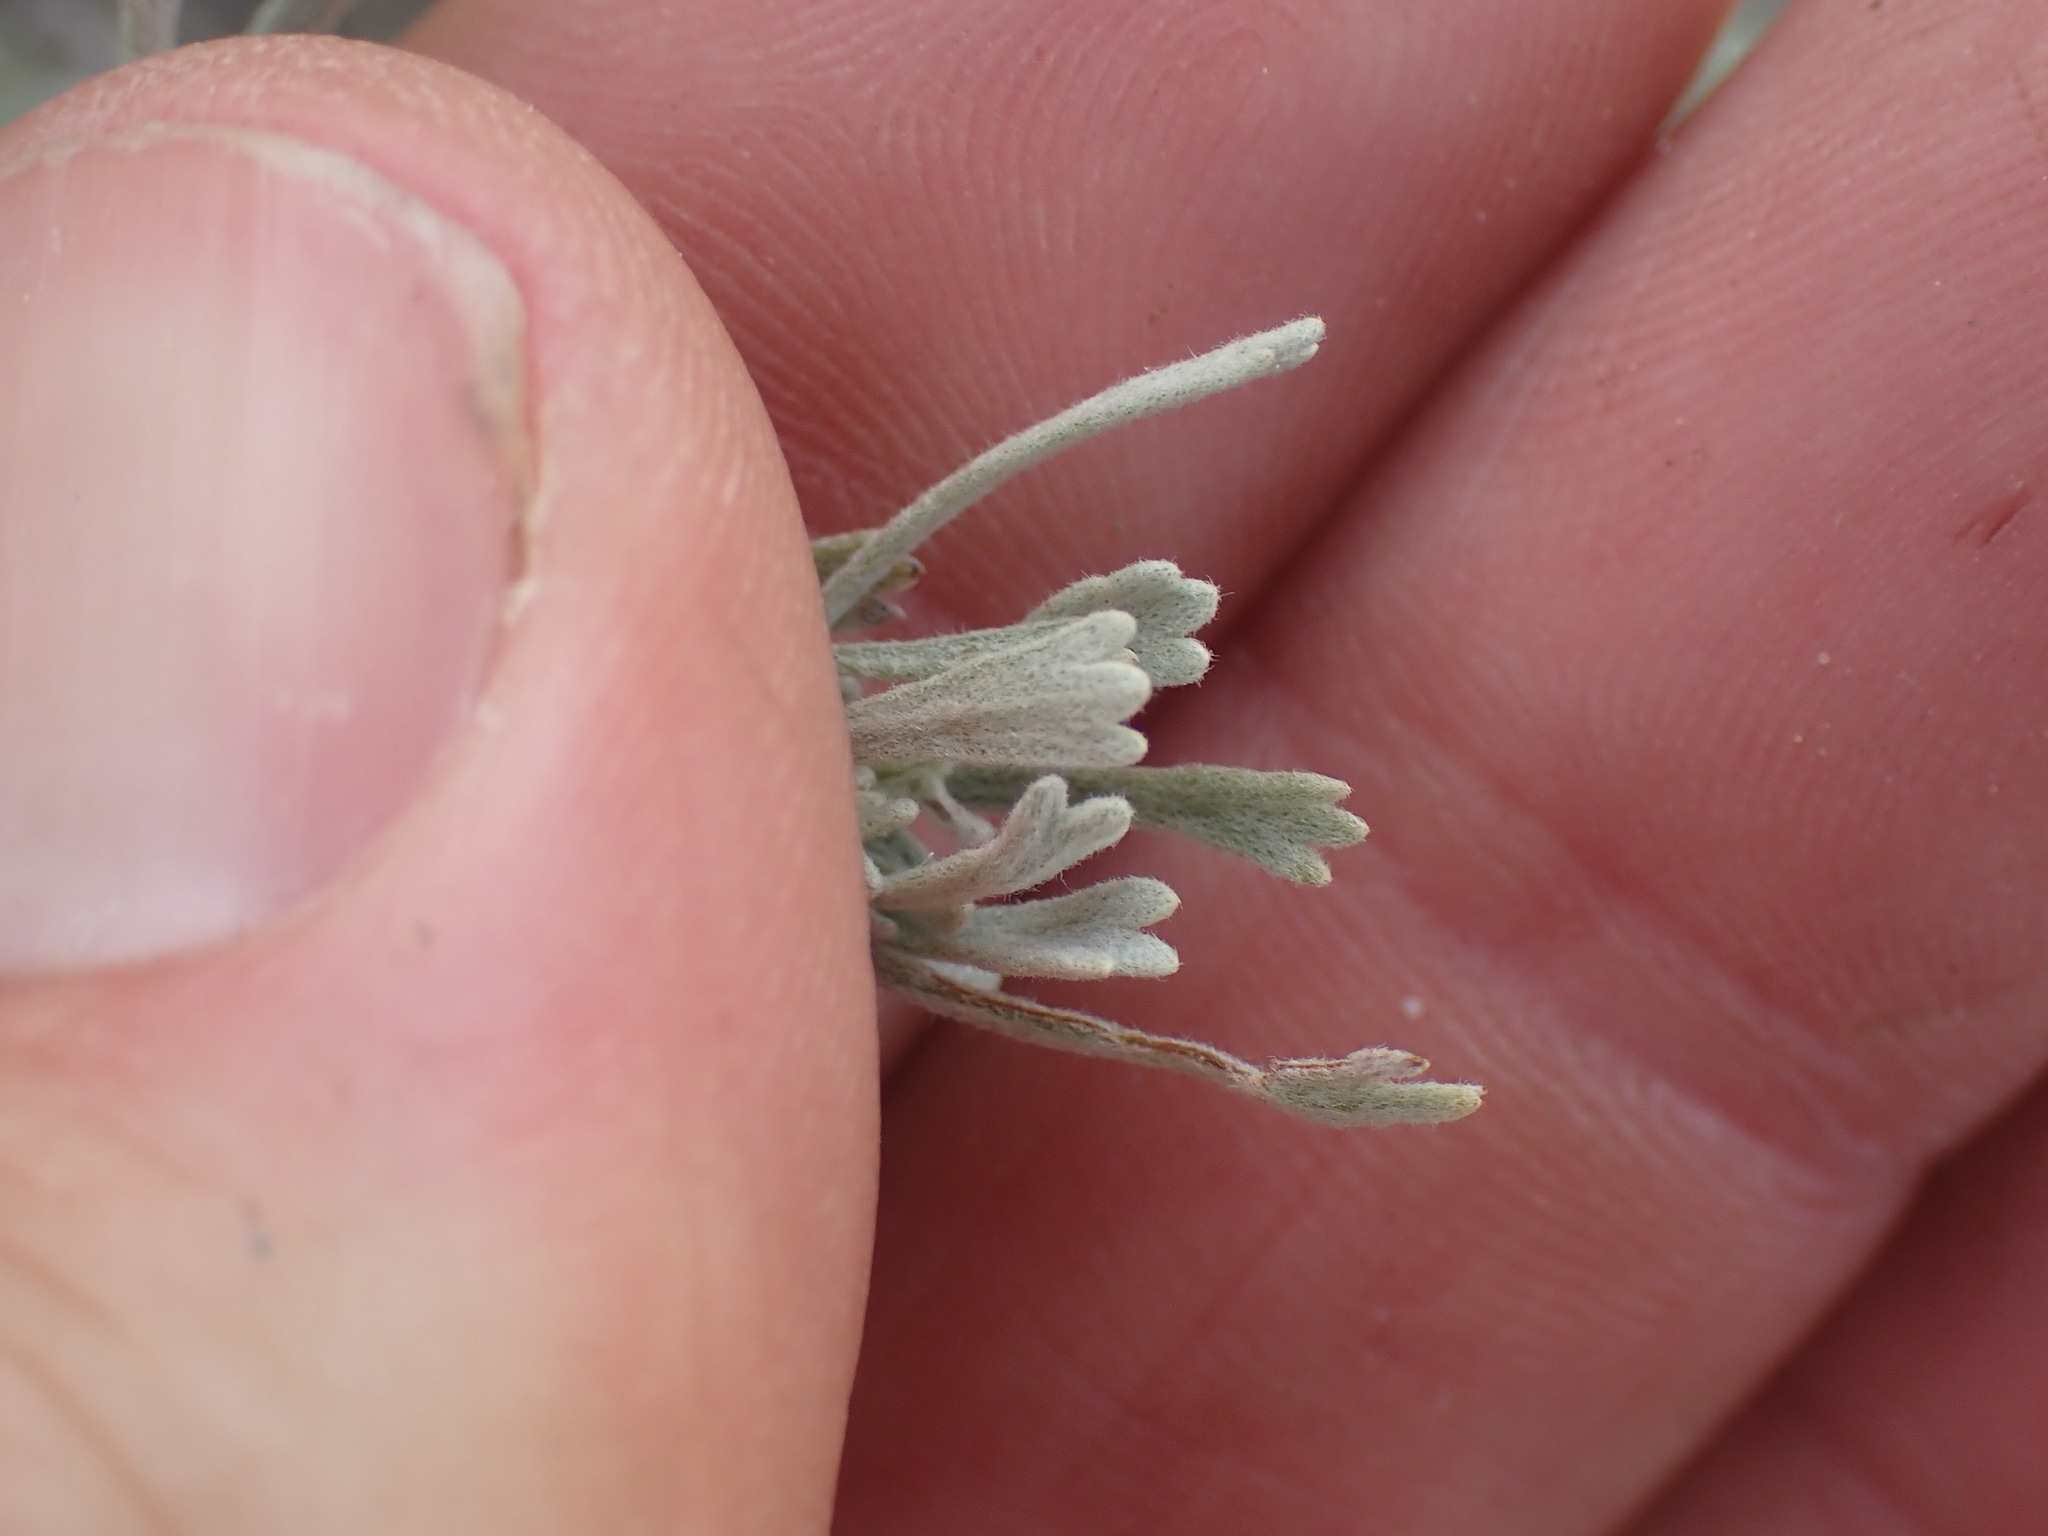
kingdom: Plantae
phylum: Tracheophyta
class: Magnoliopsida
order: Asterales
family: Asteraceae
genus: Artemisia
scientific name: Artemisia tridentata
